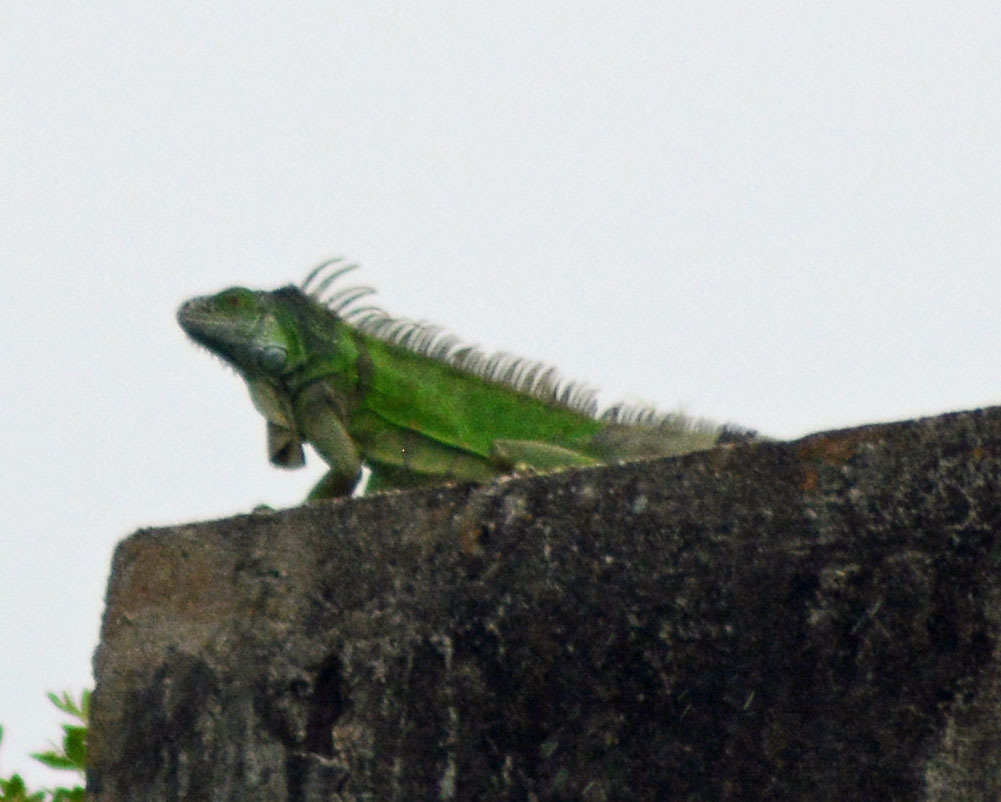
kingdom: Animalia
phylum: Chordata
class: Squamata
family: Iguanidae
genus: Iguana
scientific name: Iguana iguana
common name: Green iguana
